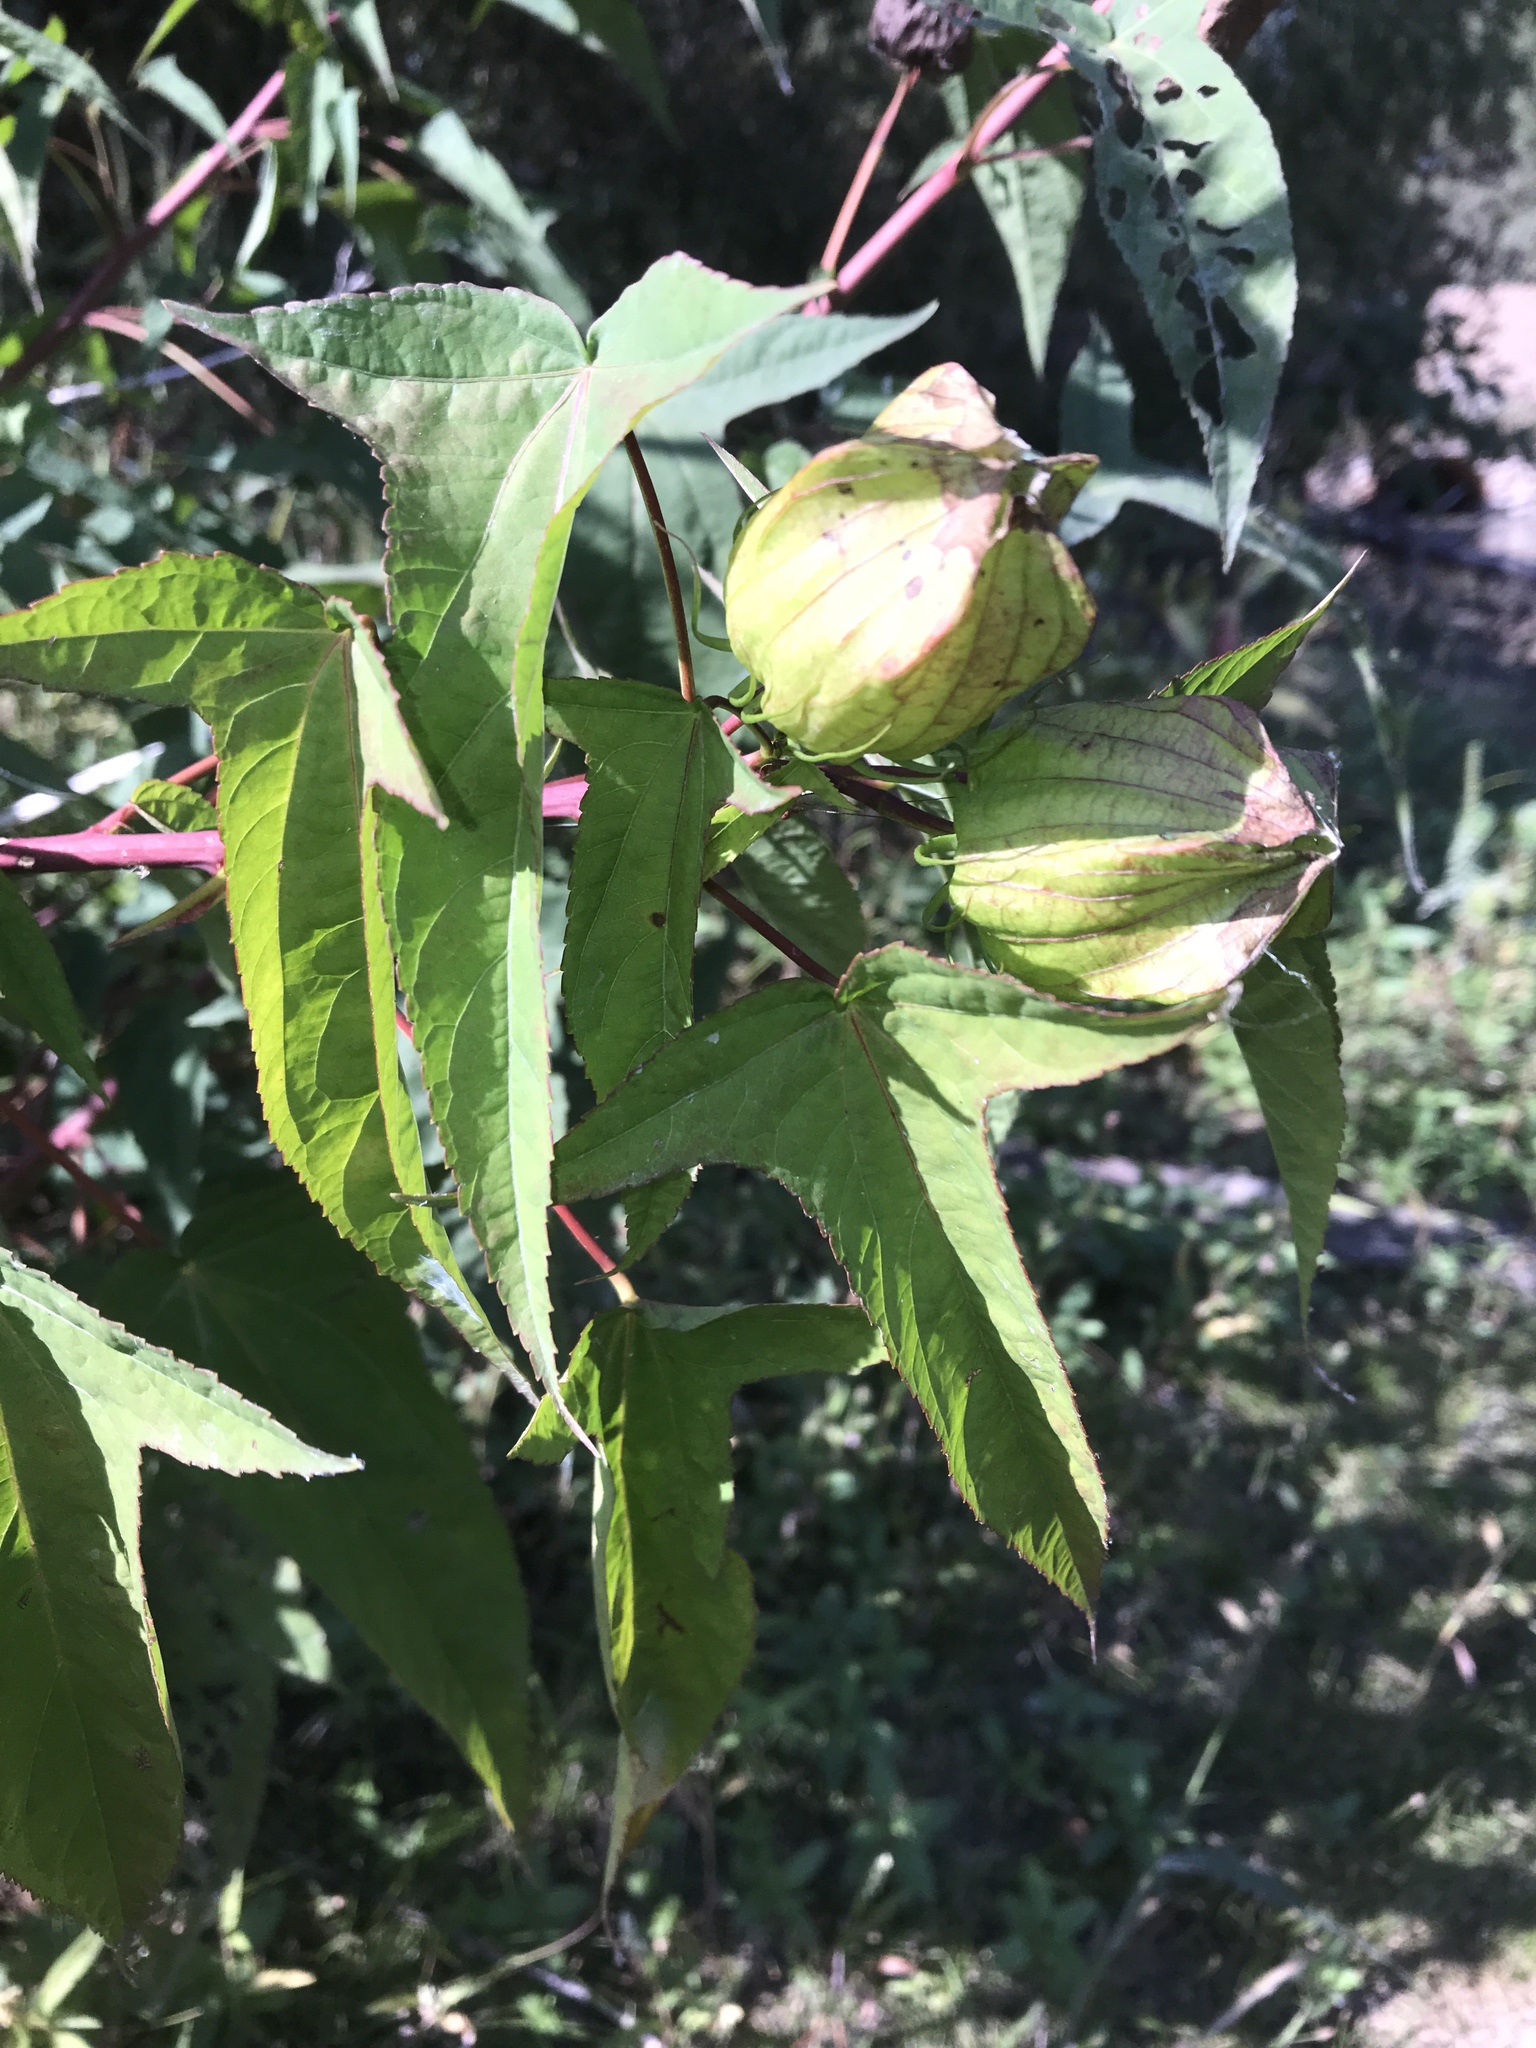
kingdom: Plantae
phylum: Tracheophyta
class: Magnoliopsida
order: Malvales
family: Malvaceae
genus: Hibiscus
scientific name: Hibiscus laevis
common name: Scarlet rose-mallow
